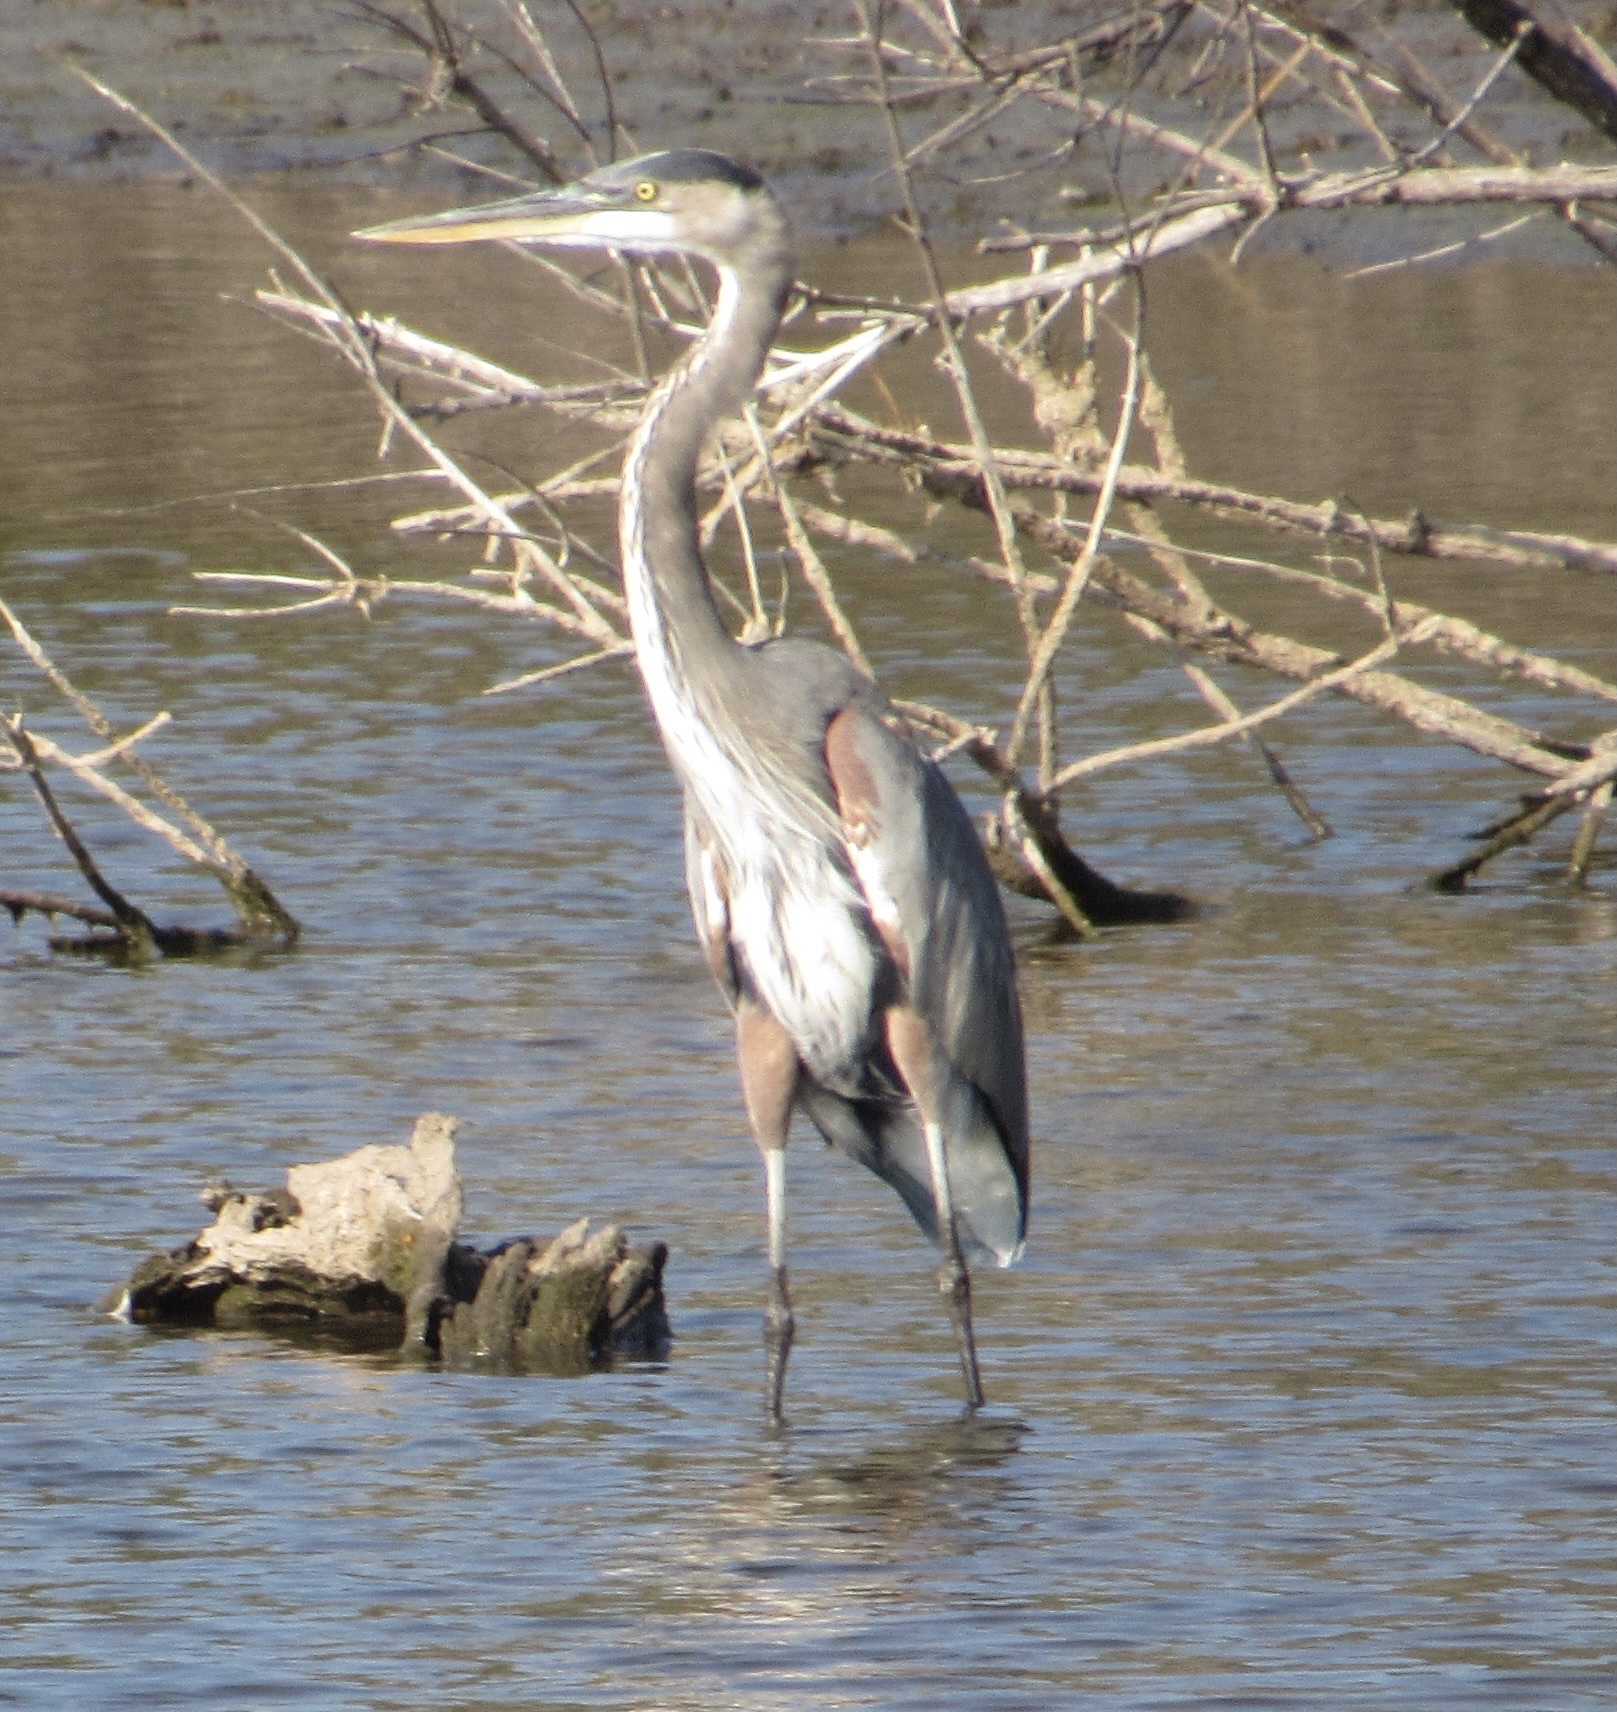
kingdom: Animalia
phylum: Chordata
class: Aves
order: Pelecaniformes
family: Ardeidae
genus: Ardea
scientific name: Ardea herodias
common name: Great blue heron
